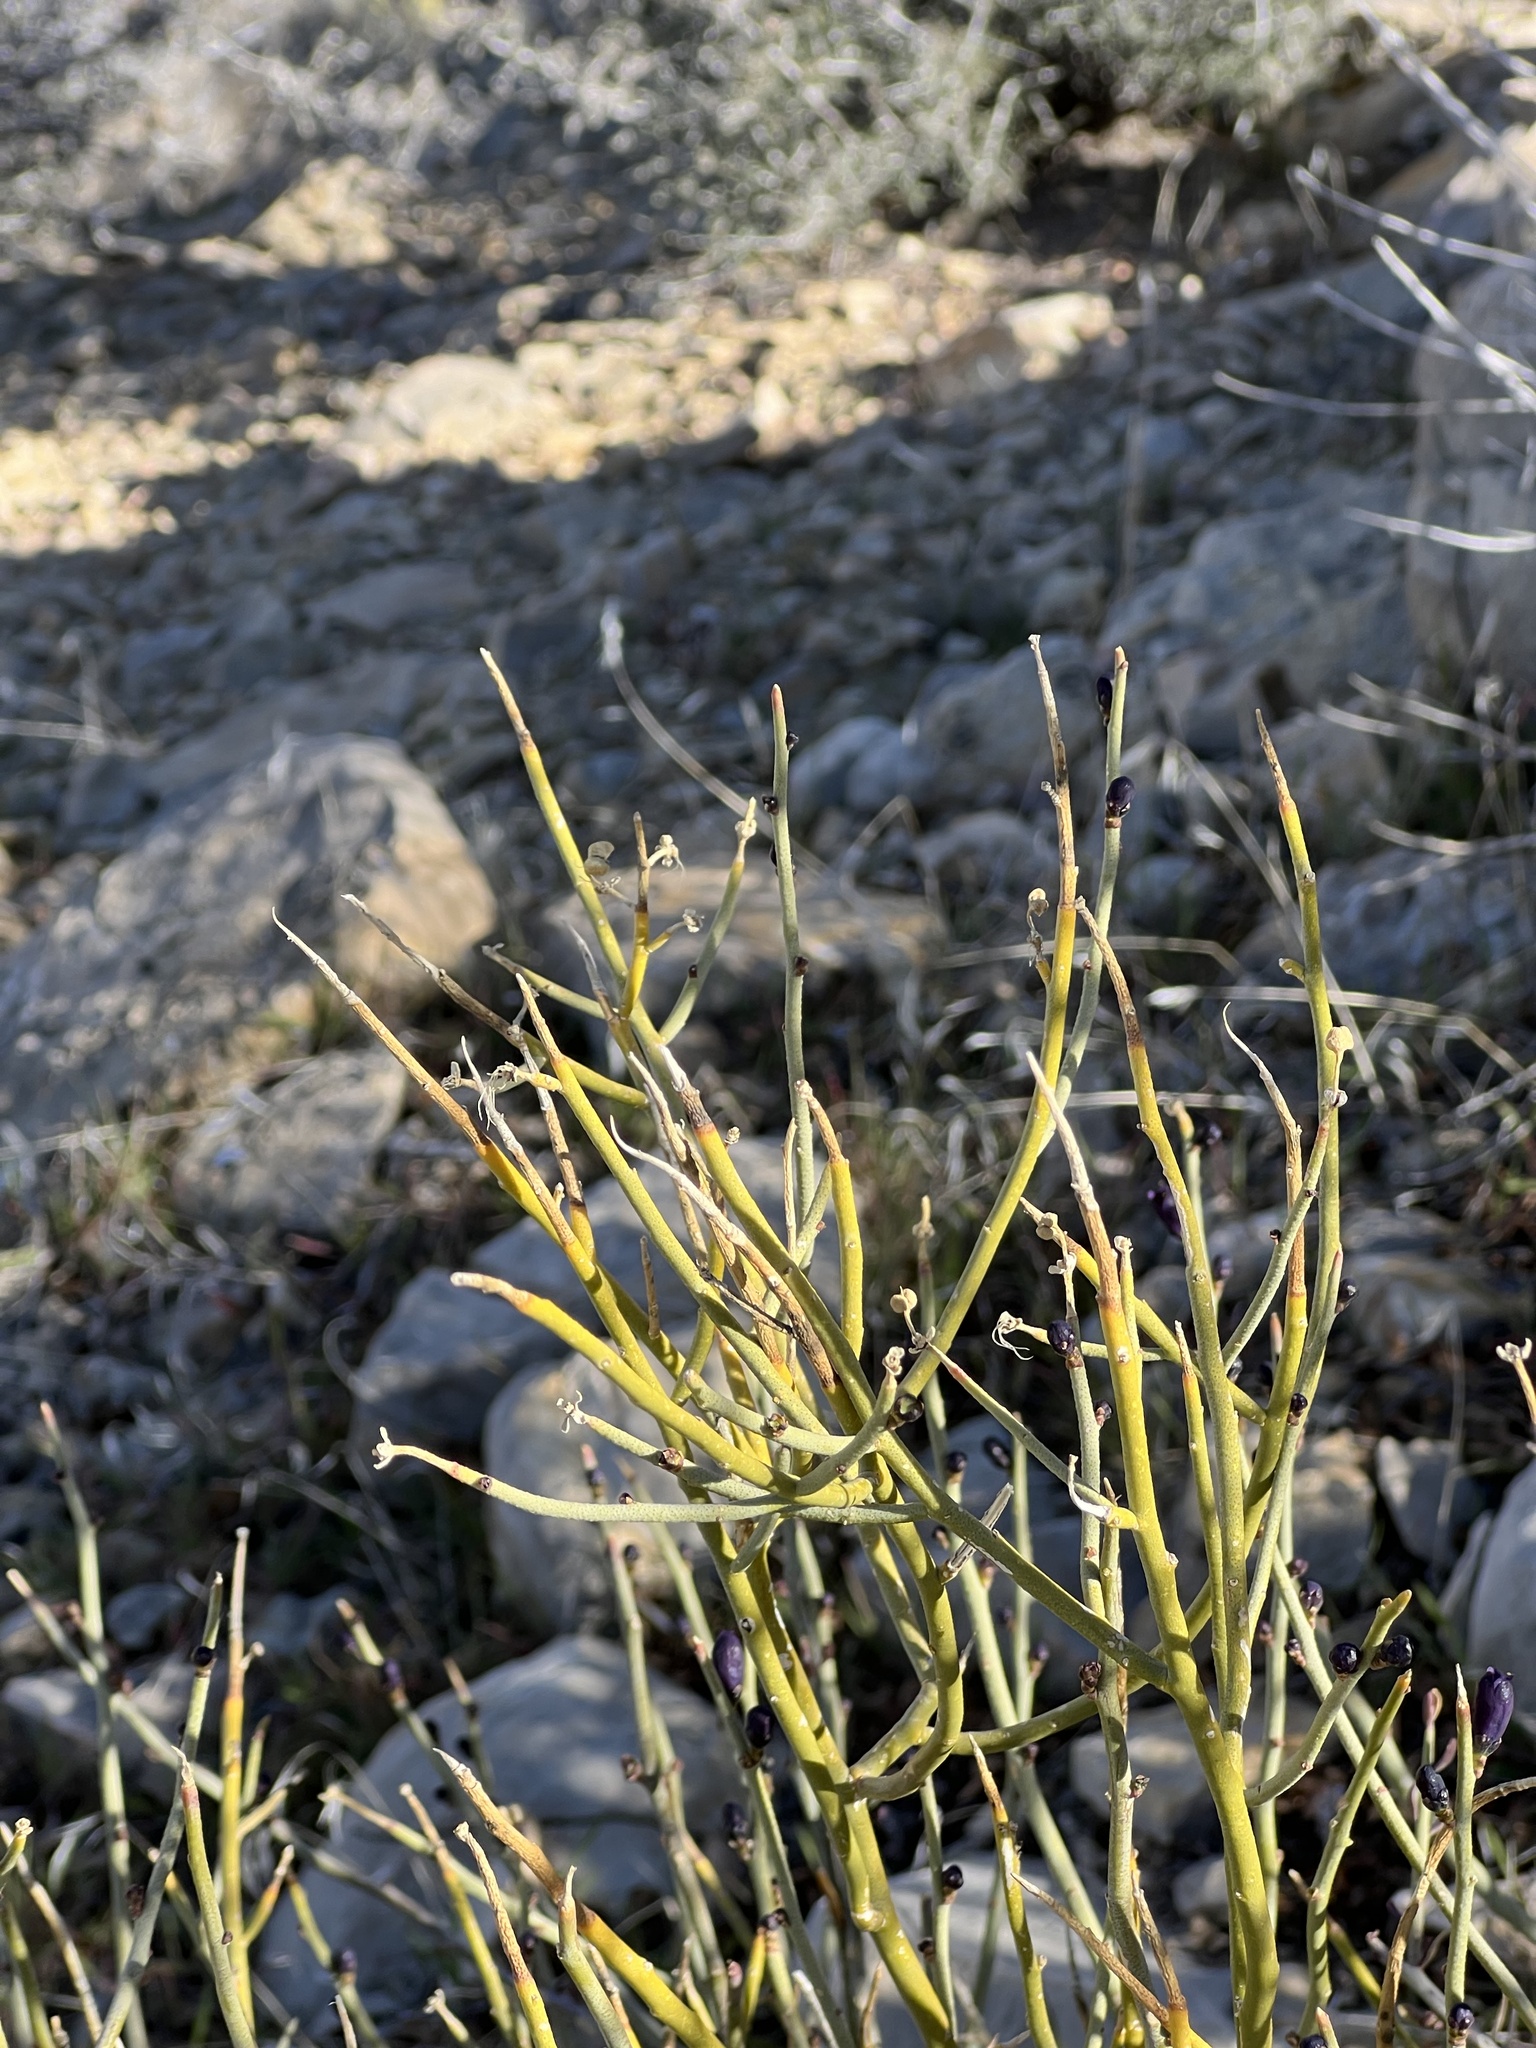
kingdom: Plantae
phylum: Tracheophyta
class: Magnoliopsida
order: Sapindales
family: Rutaceae
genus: Thamnosma
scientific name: Thamnosma montana
